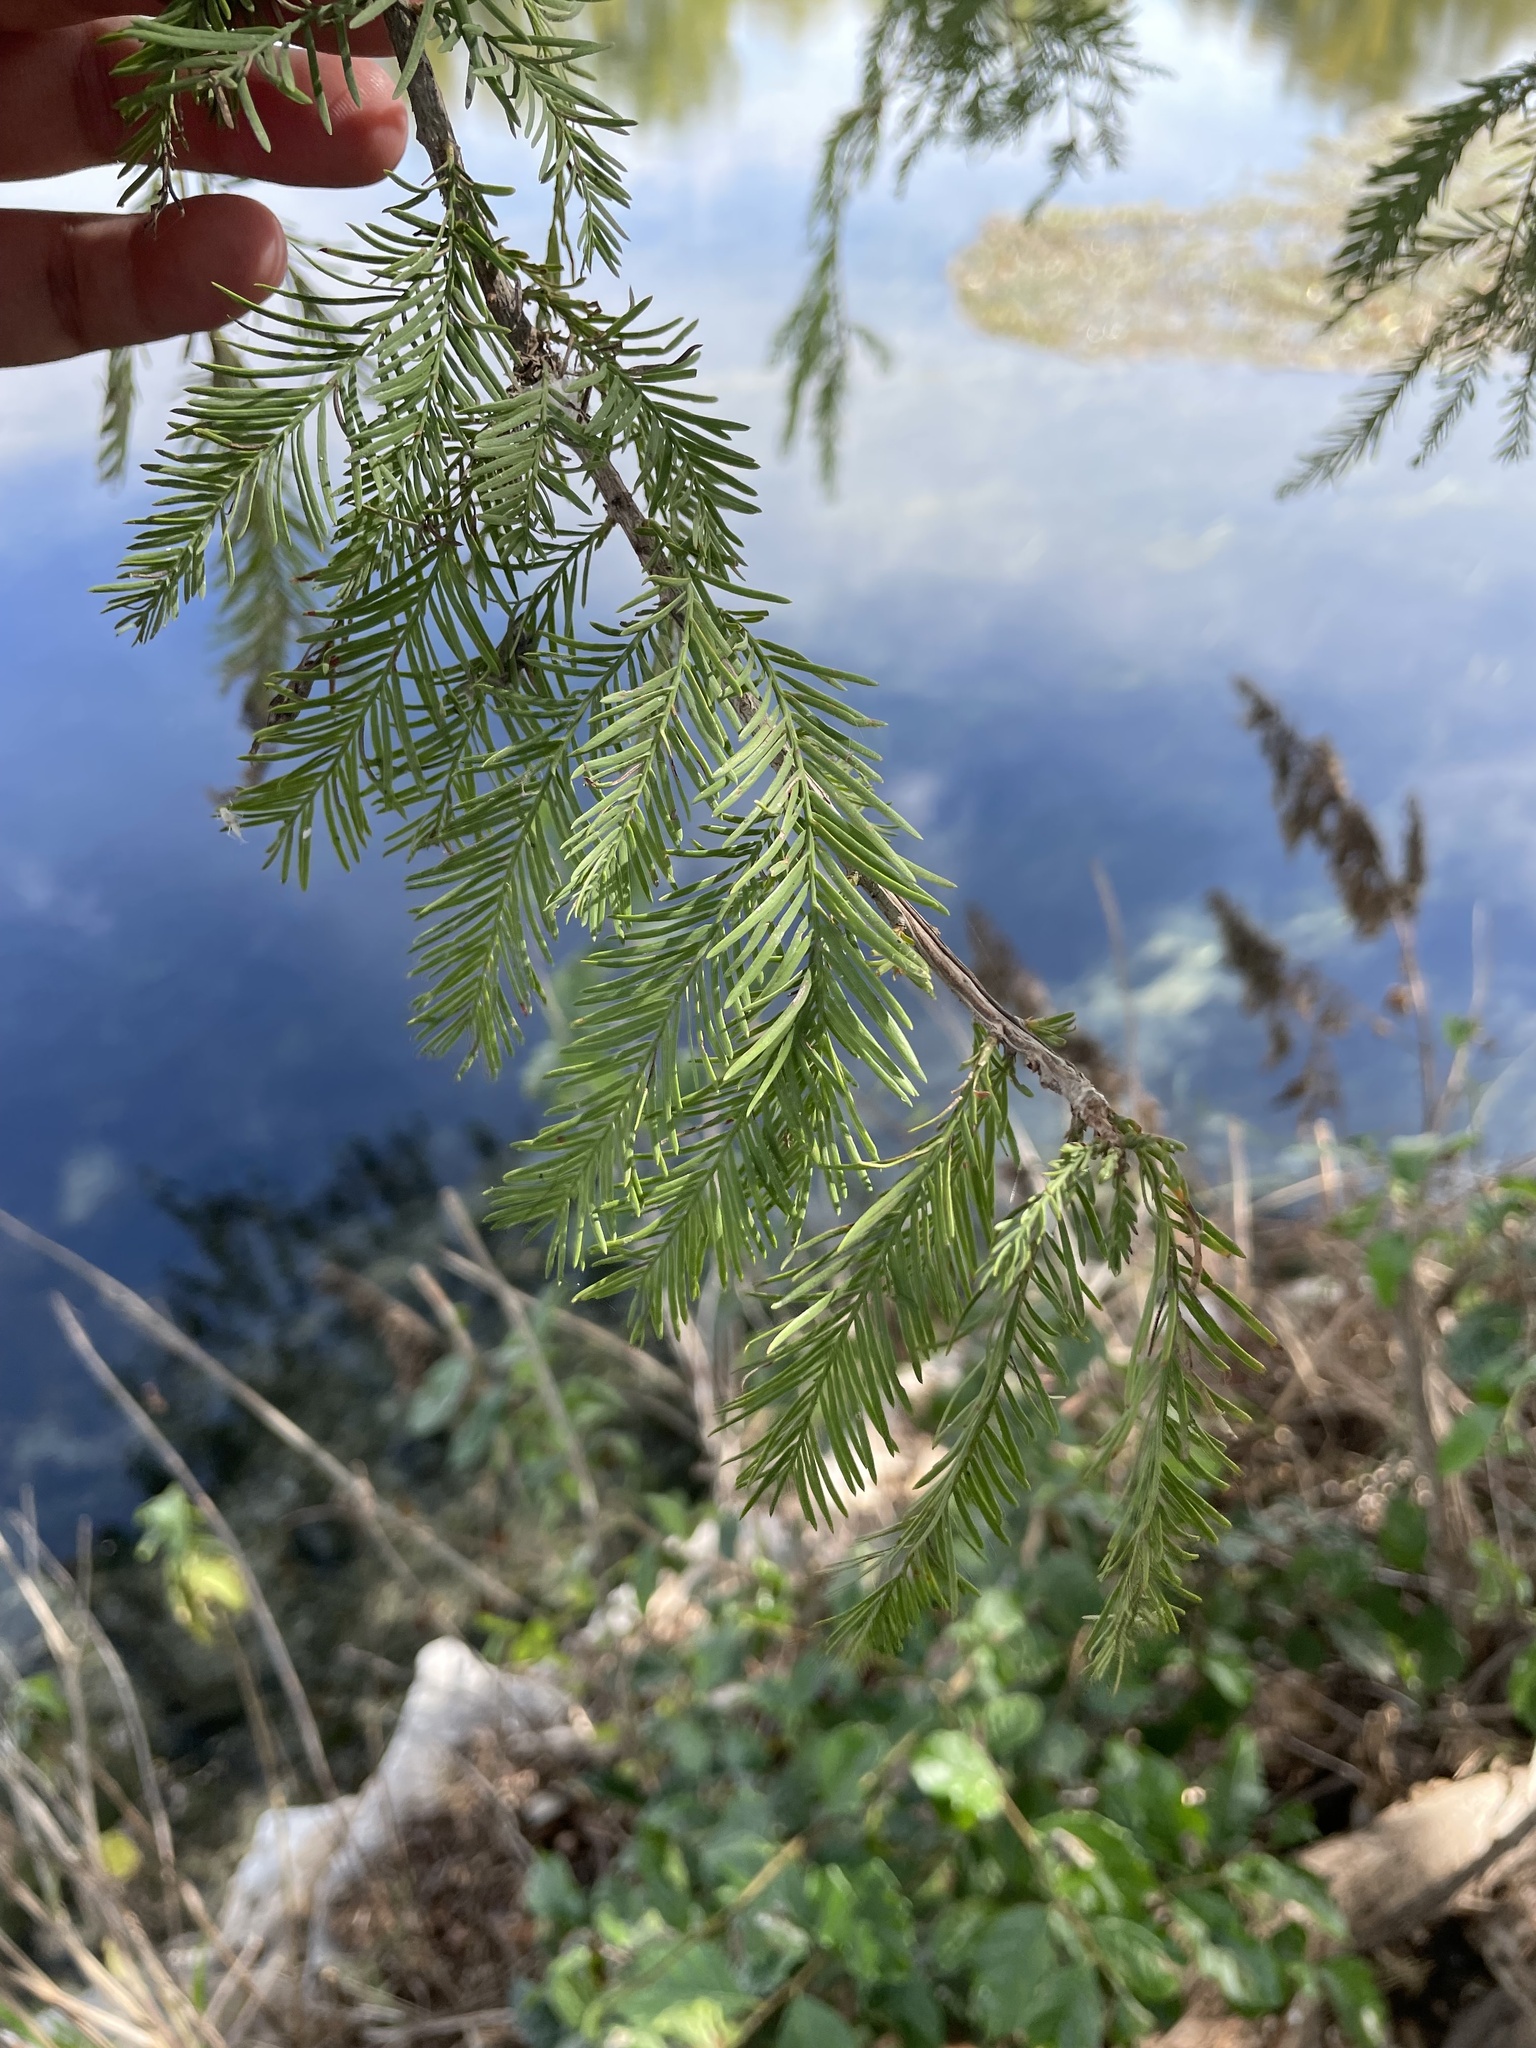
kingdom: Plantae
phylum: Tracheophyta
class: Pinopsida
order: Pinales
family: Cupressaceae
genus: Taxodium
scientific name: Taxodium distichum
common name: Bald cypress
